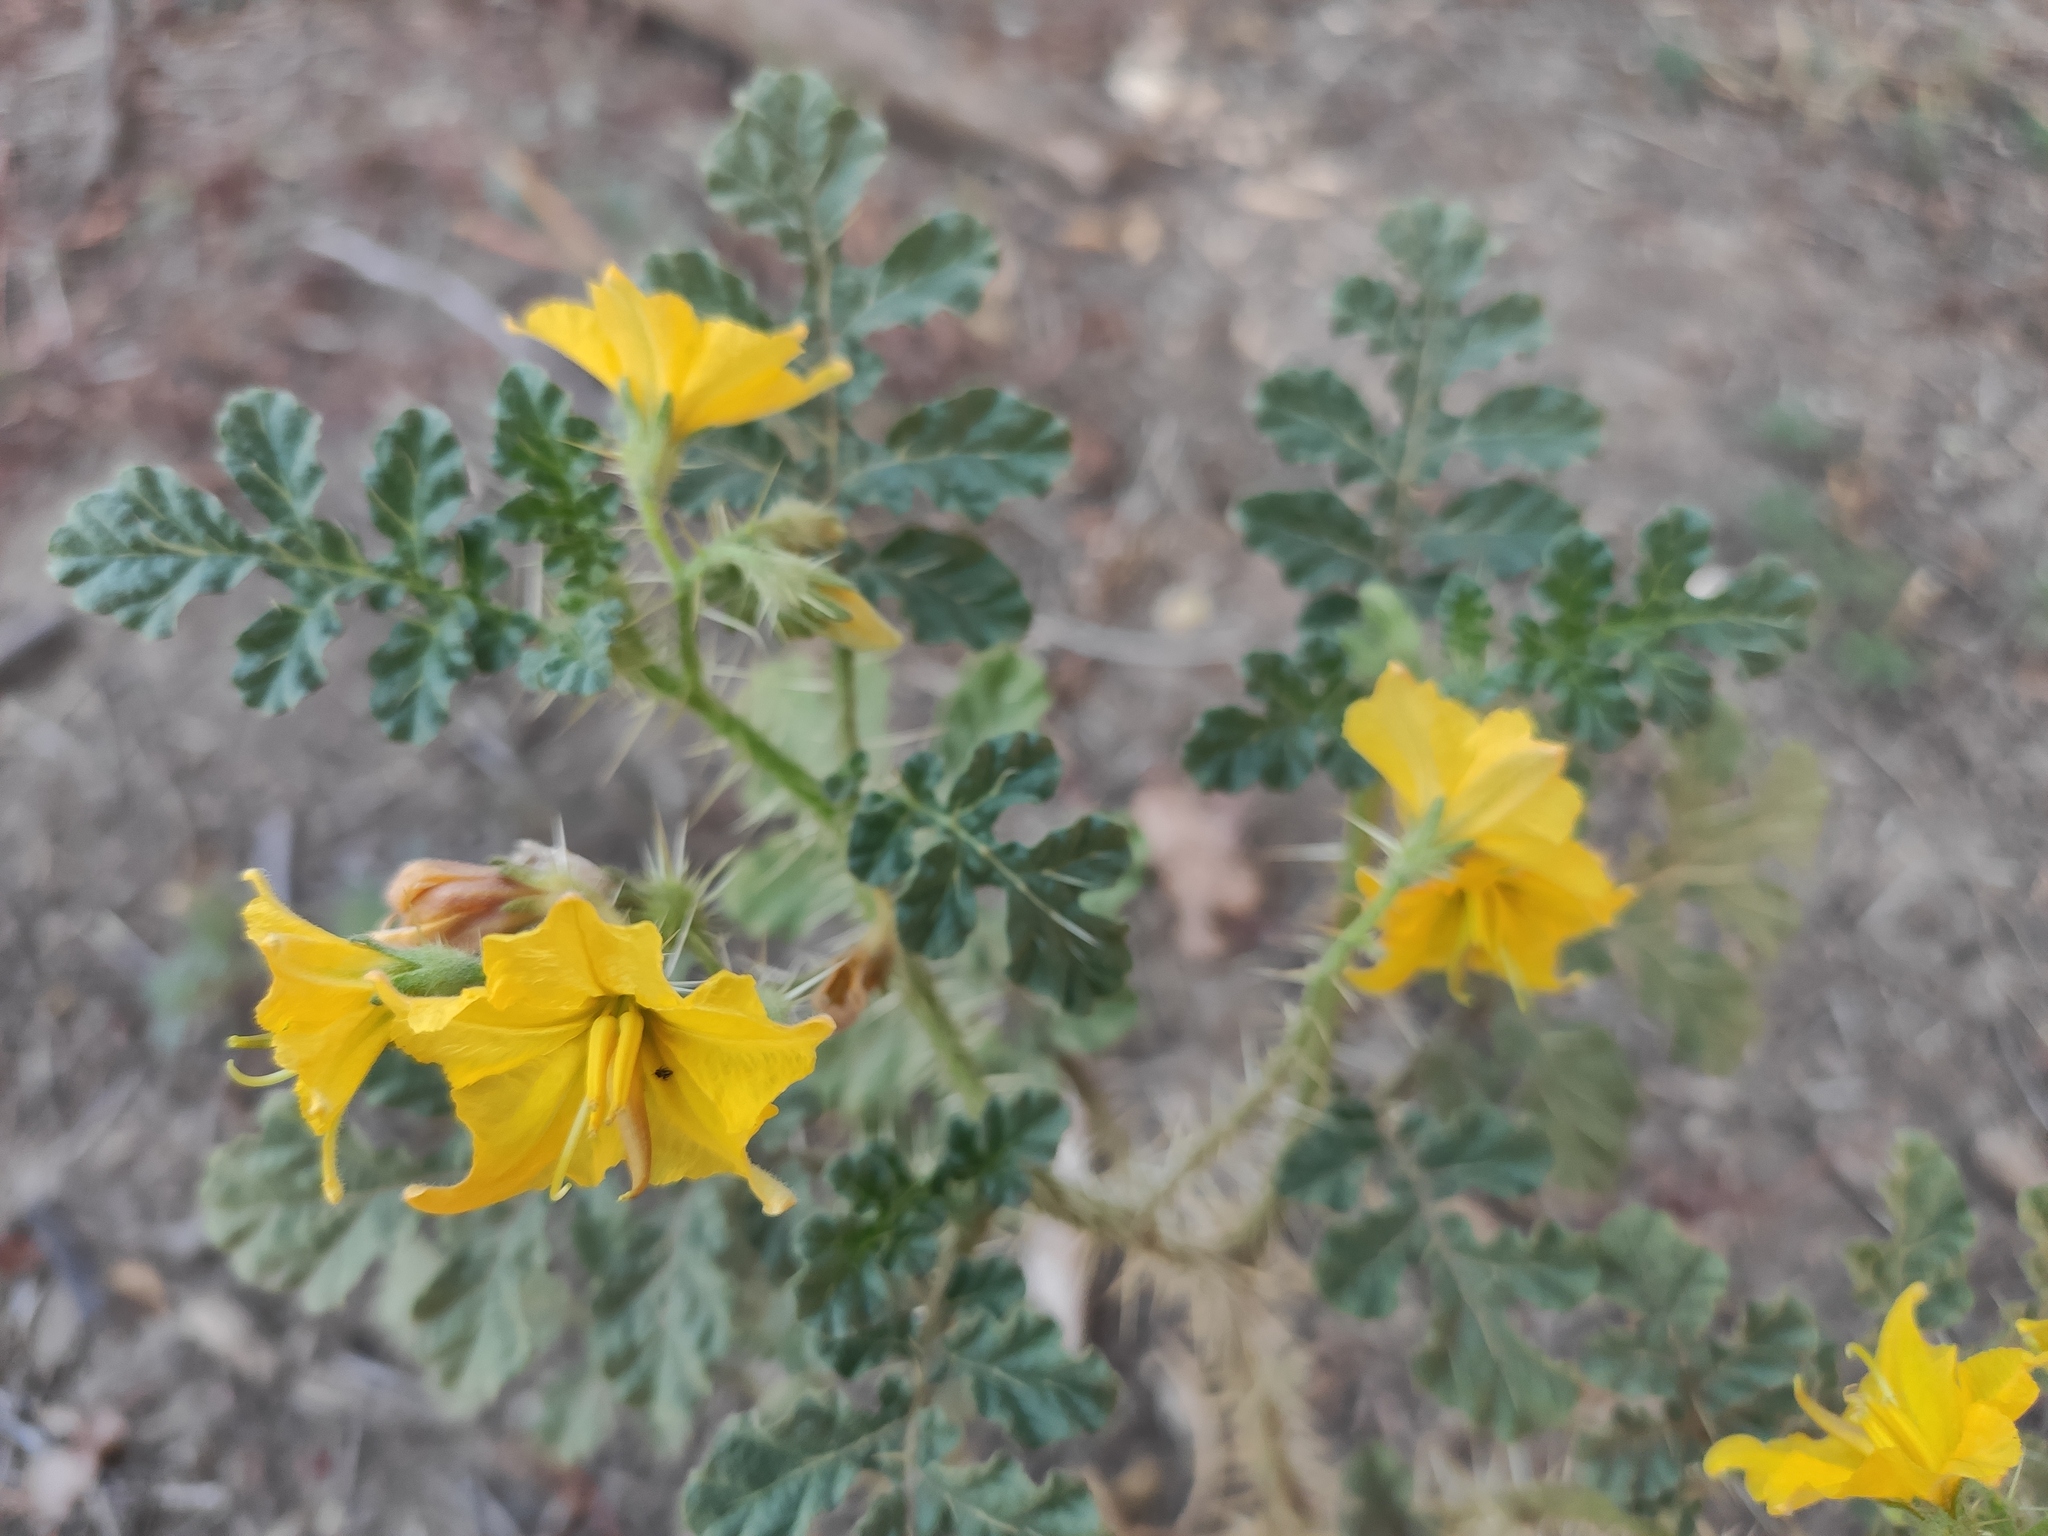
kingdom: Plantae
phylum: Tracheophyta
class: Magnoliopsida
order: Solanales
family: Solanaceae
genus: Solanum
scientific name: Solanum angustifolium
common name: Buffalobur nightshade
